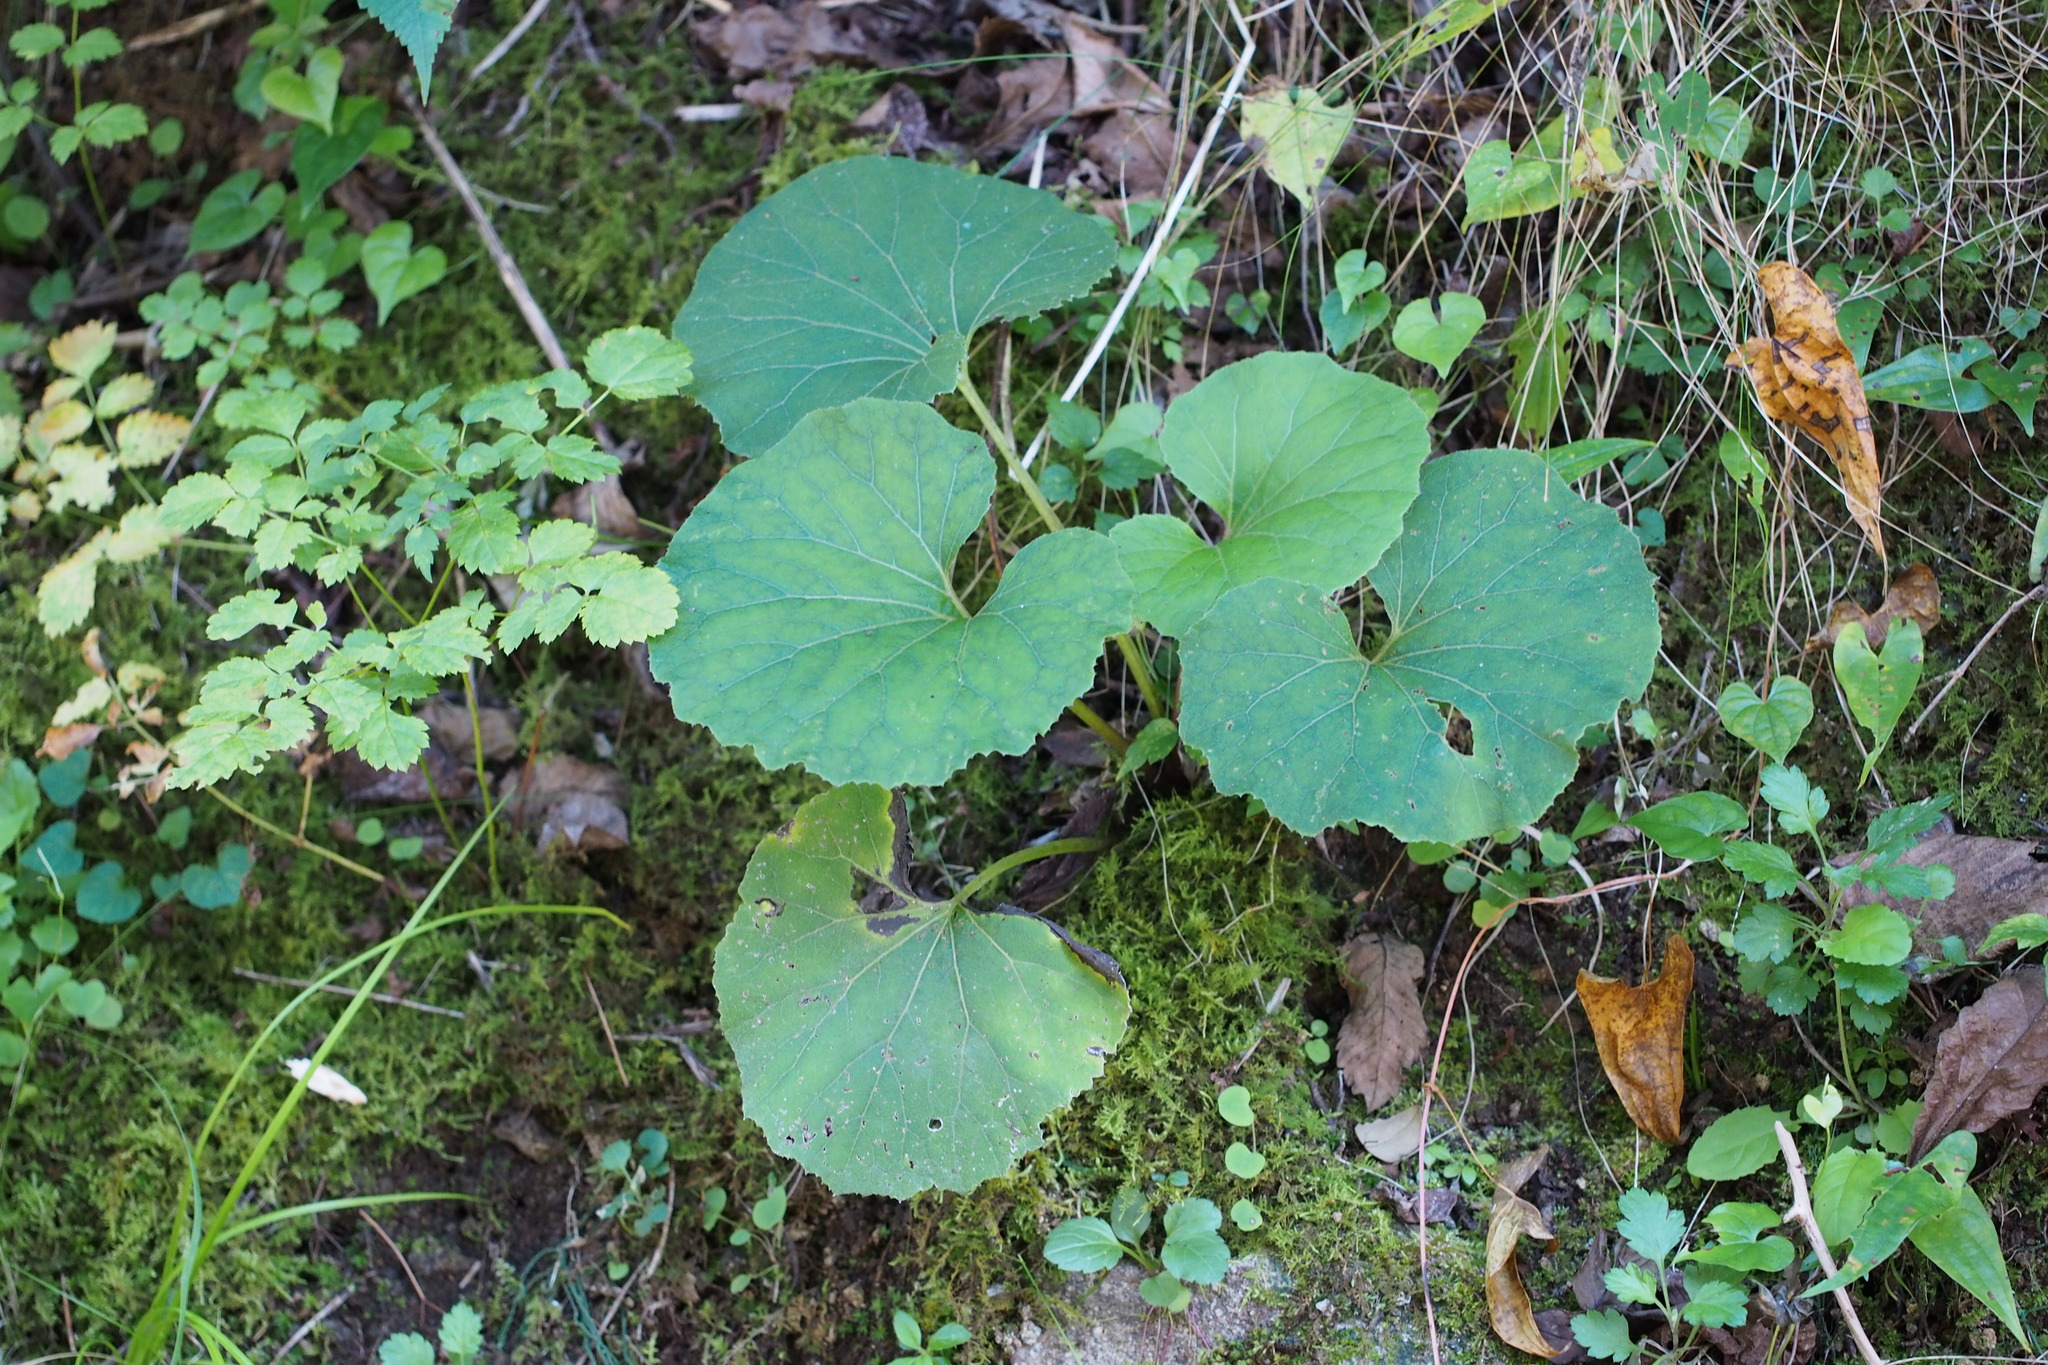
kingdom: Plantae
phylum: Tracheophyta
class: Magnoliopsida
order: Asterales
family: Asteraceae
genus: Petasites
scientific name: Petasites japonicus
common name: Giant butterbur
